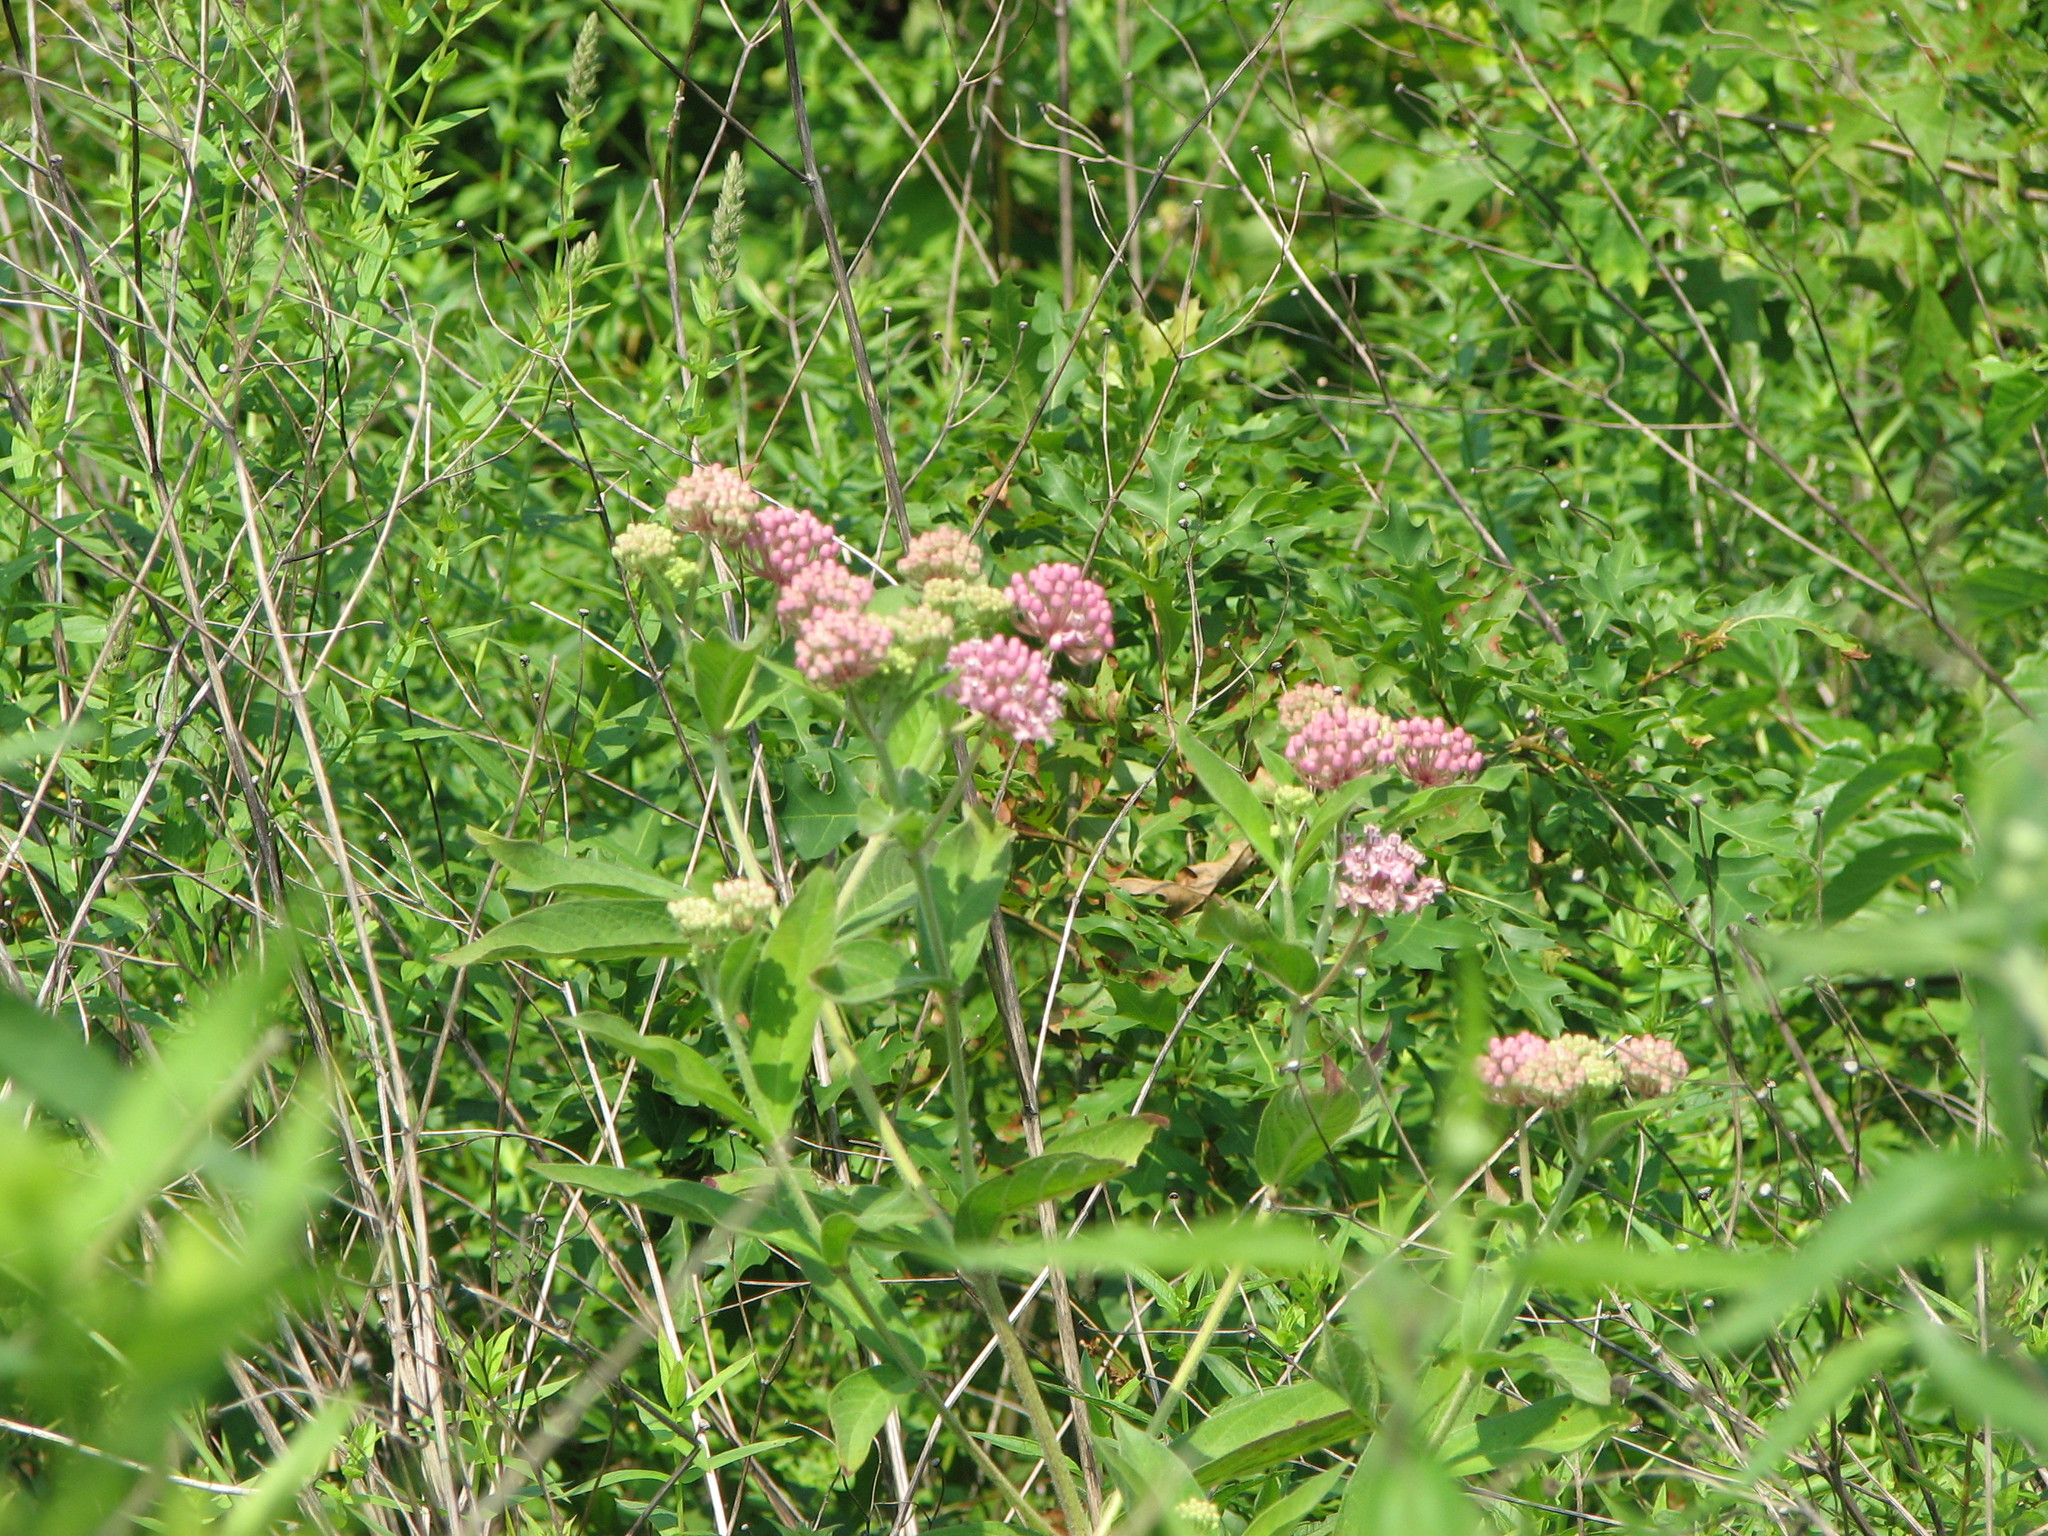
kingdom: Plantae
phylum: Tracheophyta
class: Magnoliopsida
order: Gentianales
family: Apocynaceae
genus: Asclepias
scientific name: Asclepias incarnata
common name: Swamp milkweed
